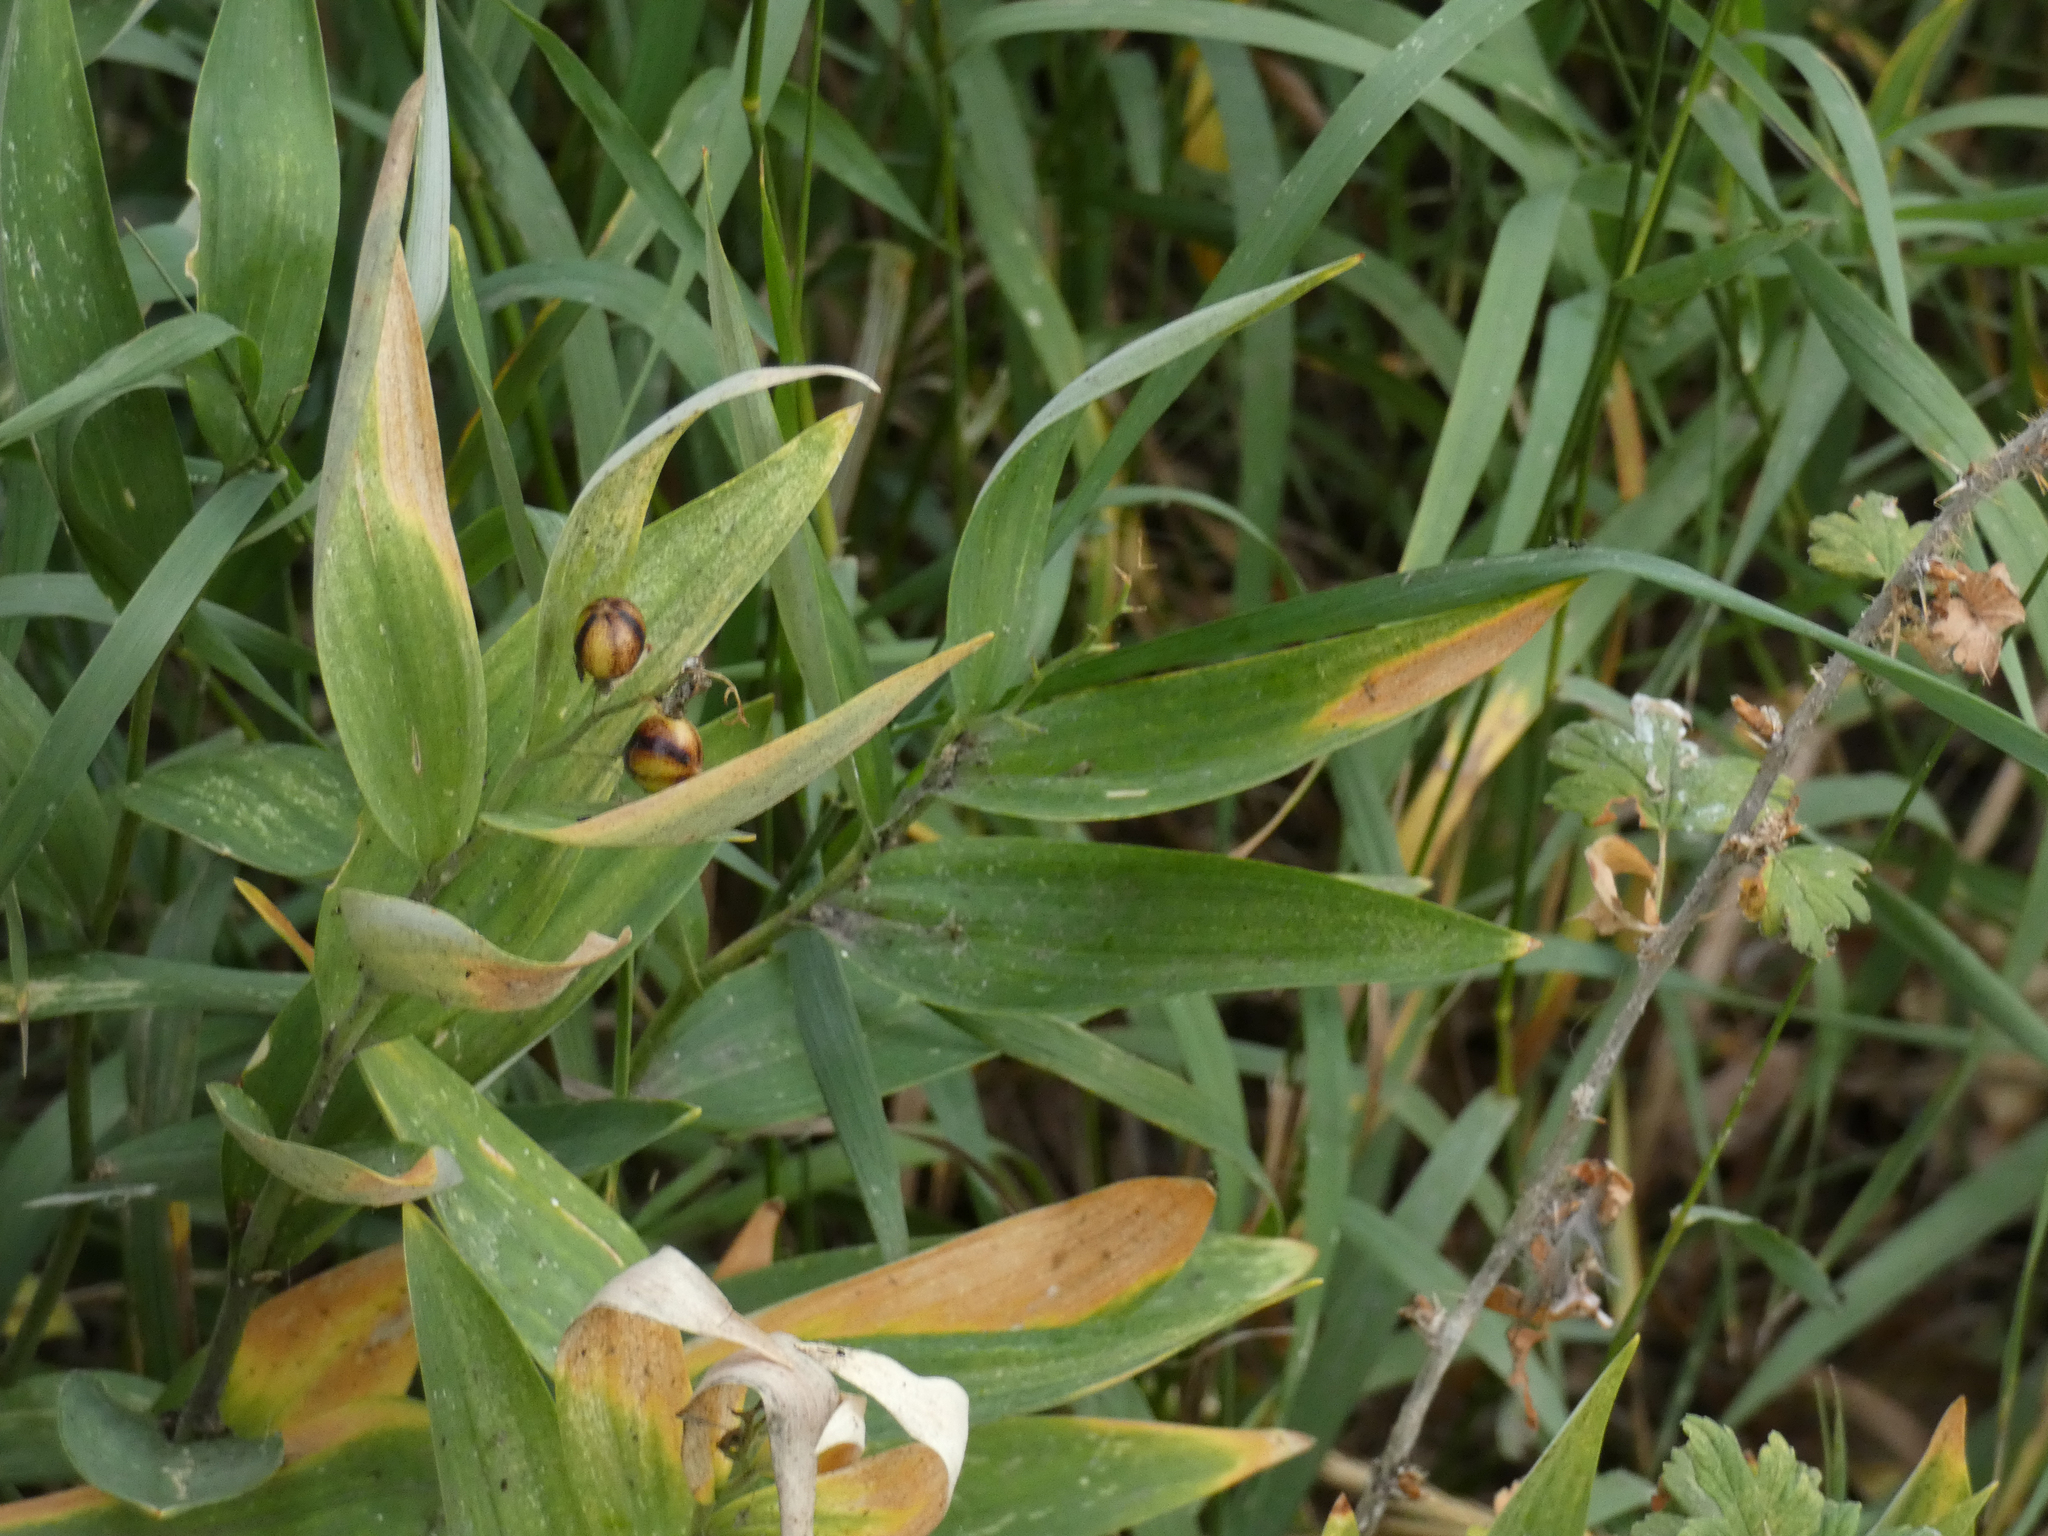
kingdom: Plantae
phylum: Tracheophyta
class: Liliopsida
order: Asparagales
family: Asparagaceae
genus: Maianthemum
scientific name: Maianthemum stellatum
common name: Little false solomon's seal
